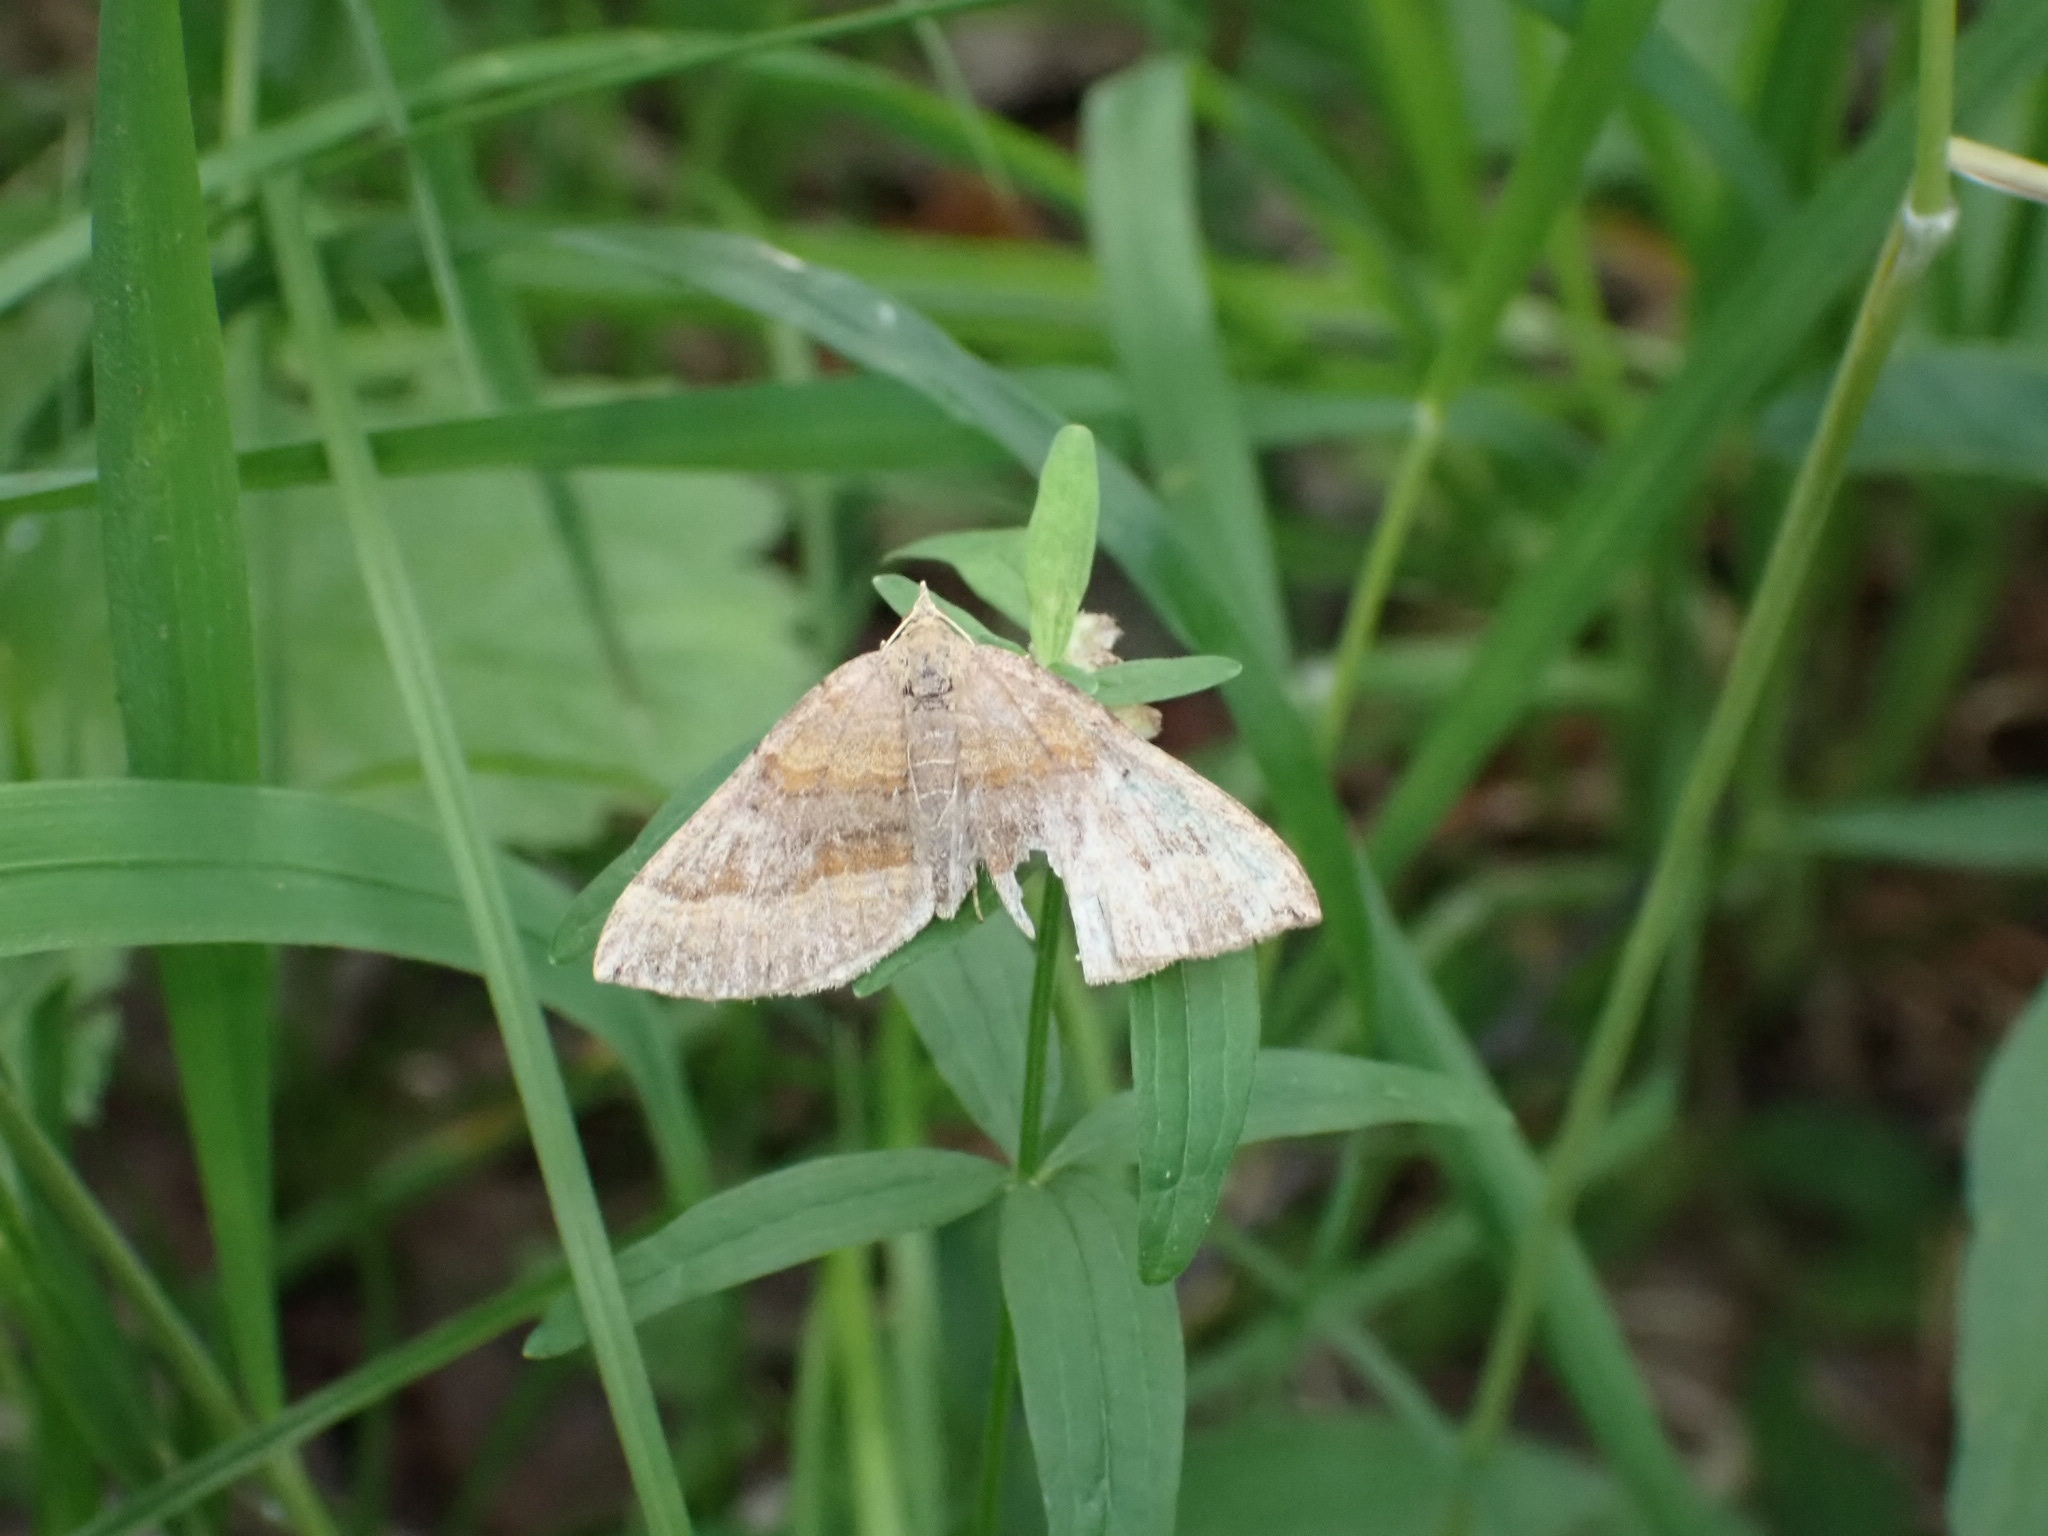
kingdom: Animalia
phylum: Arthropoda
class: Insecta
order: Lepidoptera
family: Geometridae
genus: Scotopteryx
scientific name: Scotopteryx chenopodiata
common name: Shaded broad-bar
